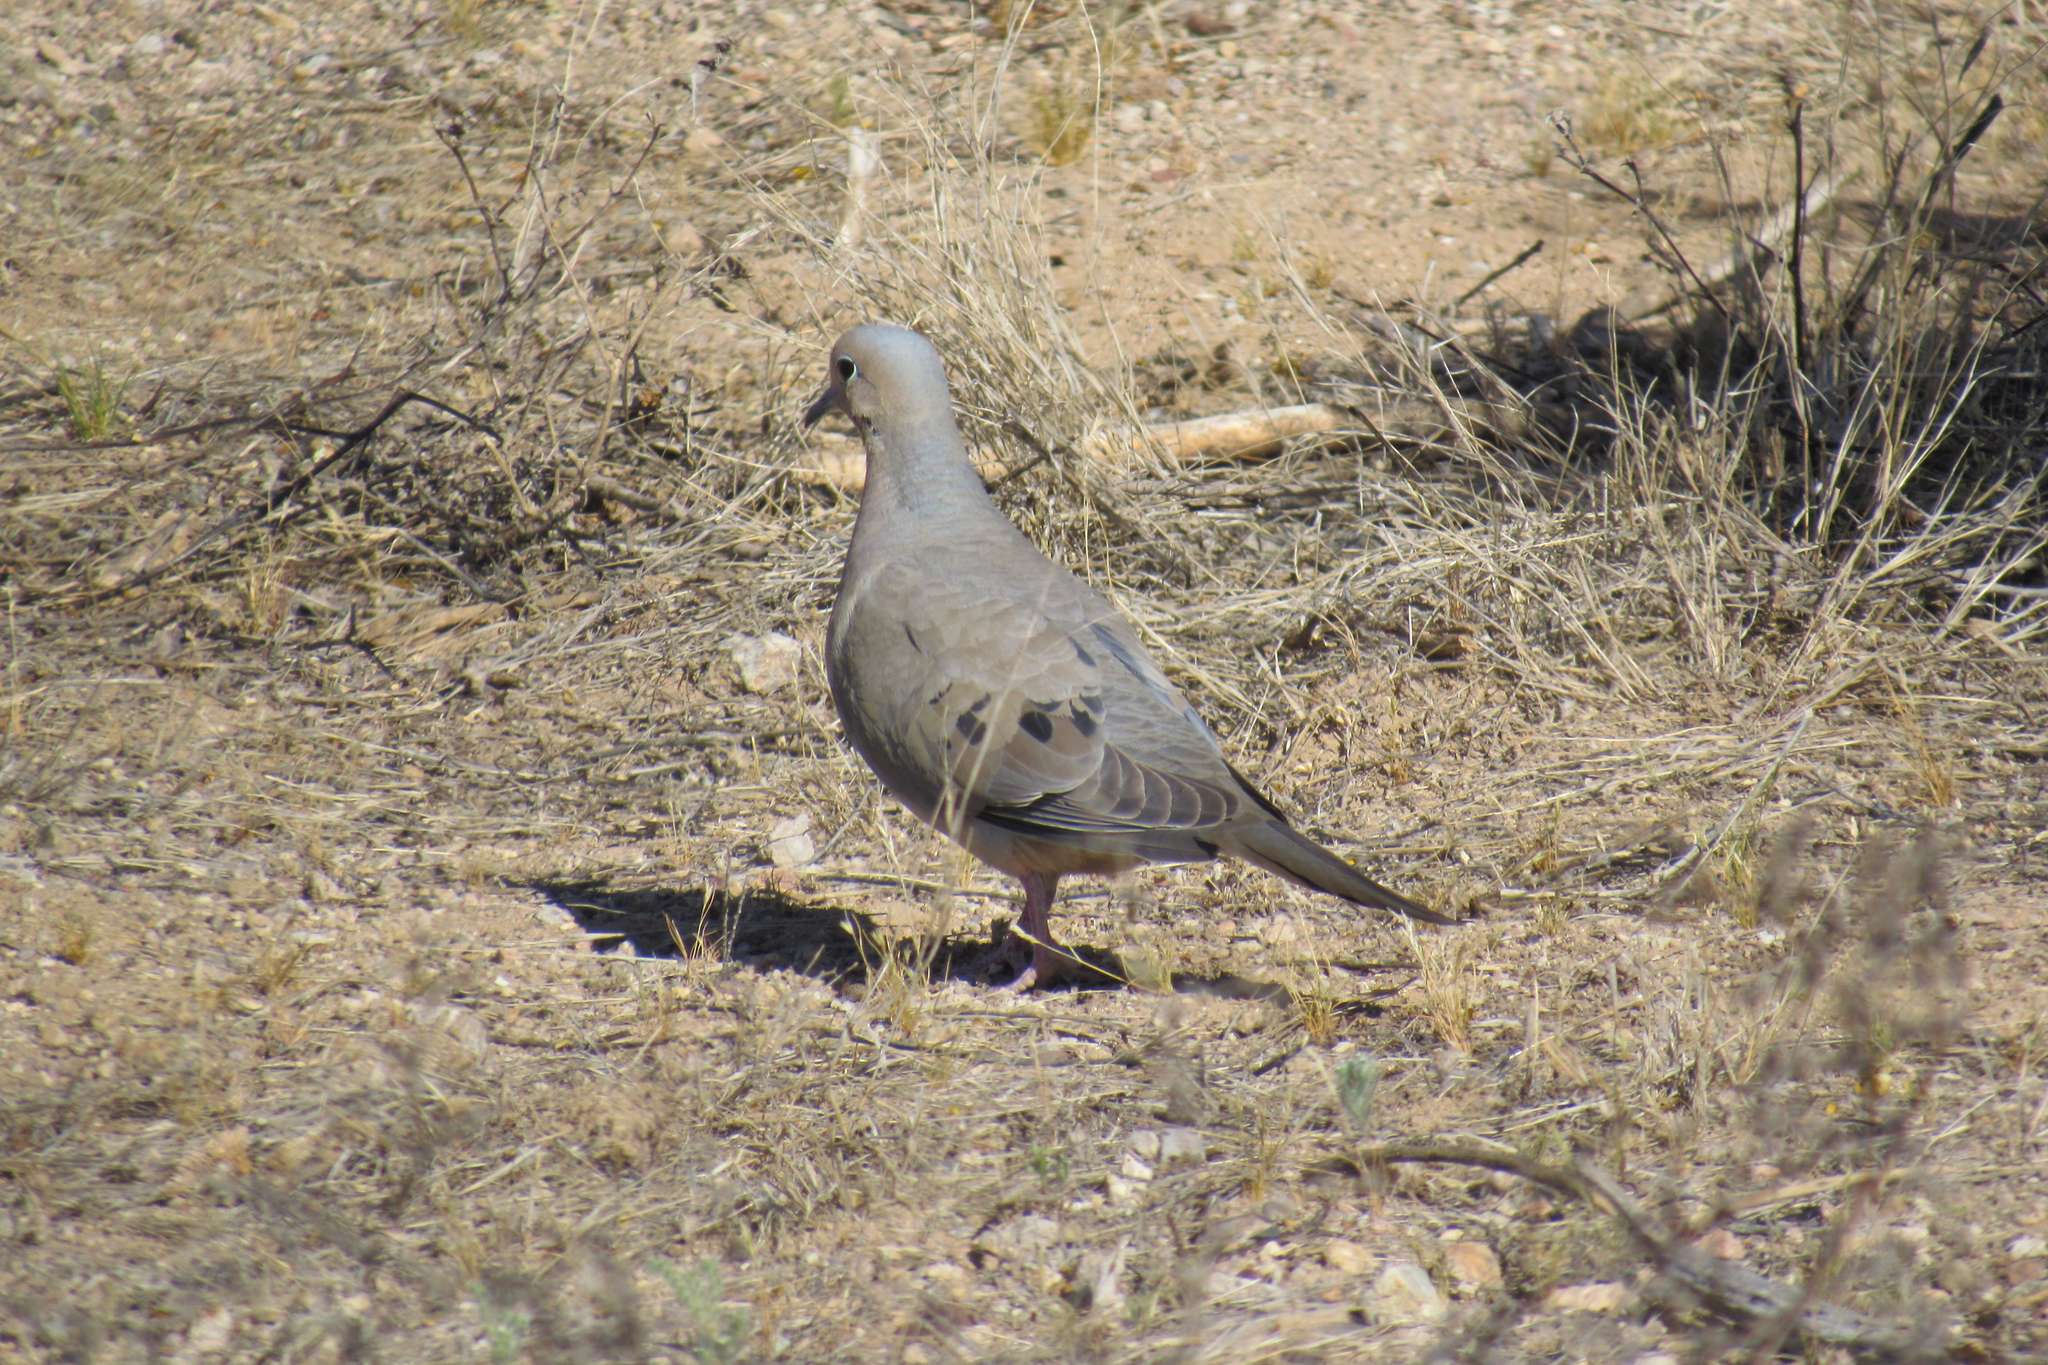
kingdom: Animalia
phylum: Chordata
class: Aves
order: Columbiformes
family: Columbidae
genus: Zenaida
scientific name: Zenaida macroura
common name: Mourning dove
